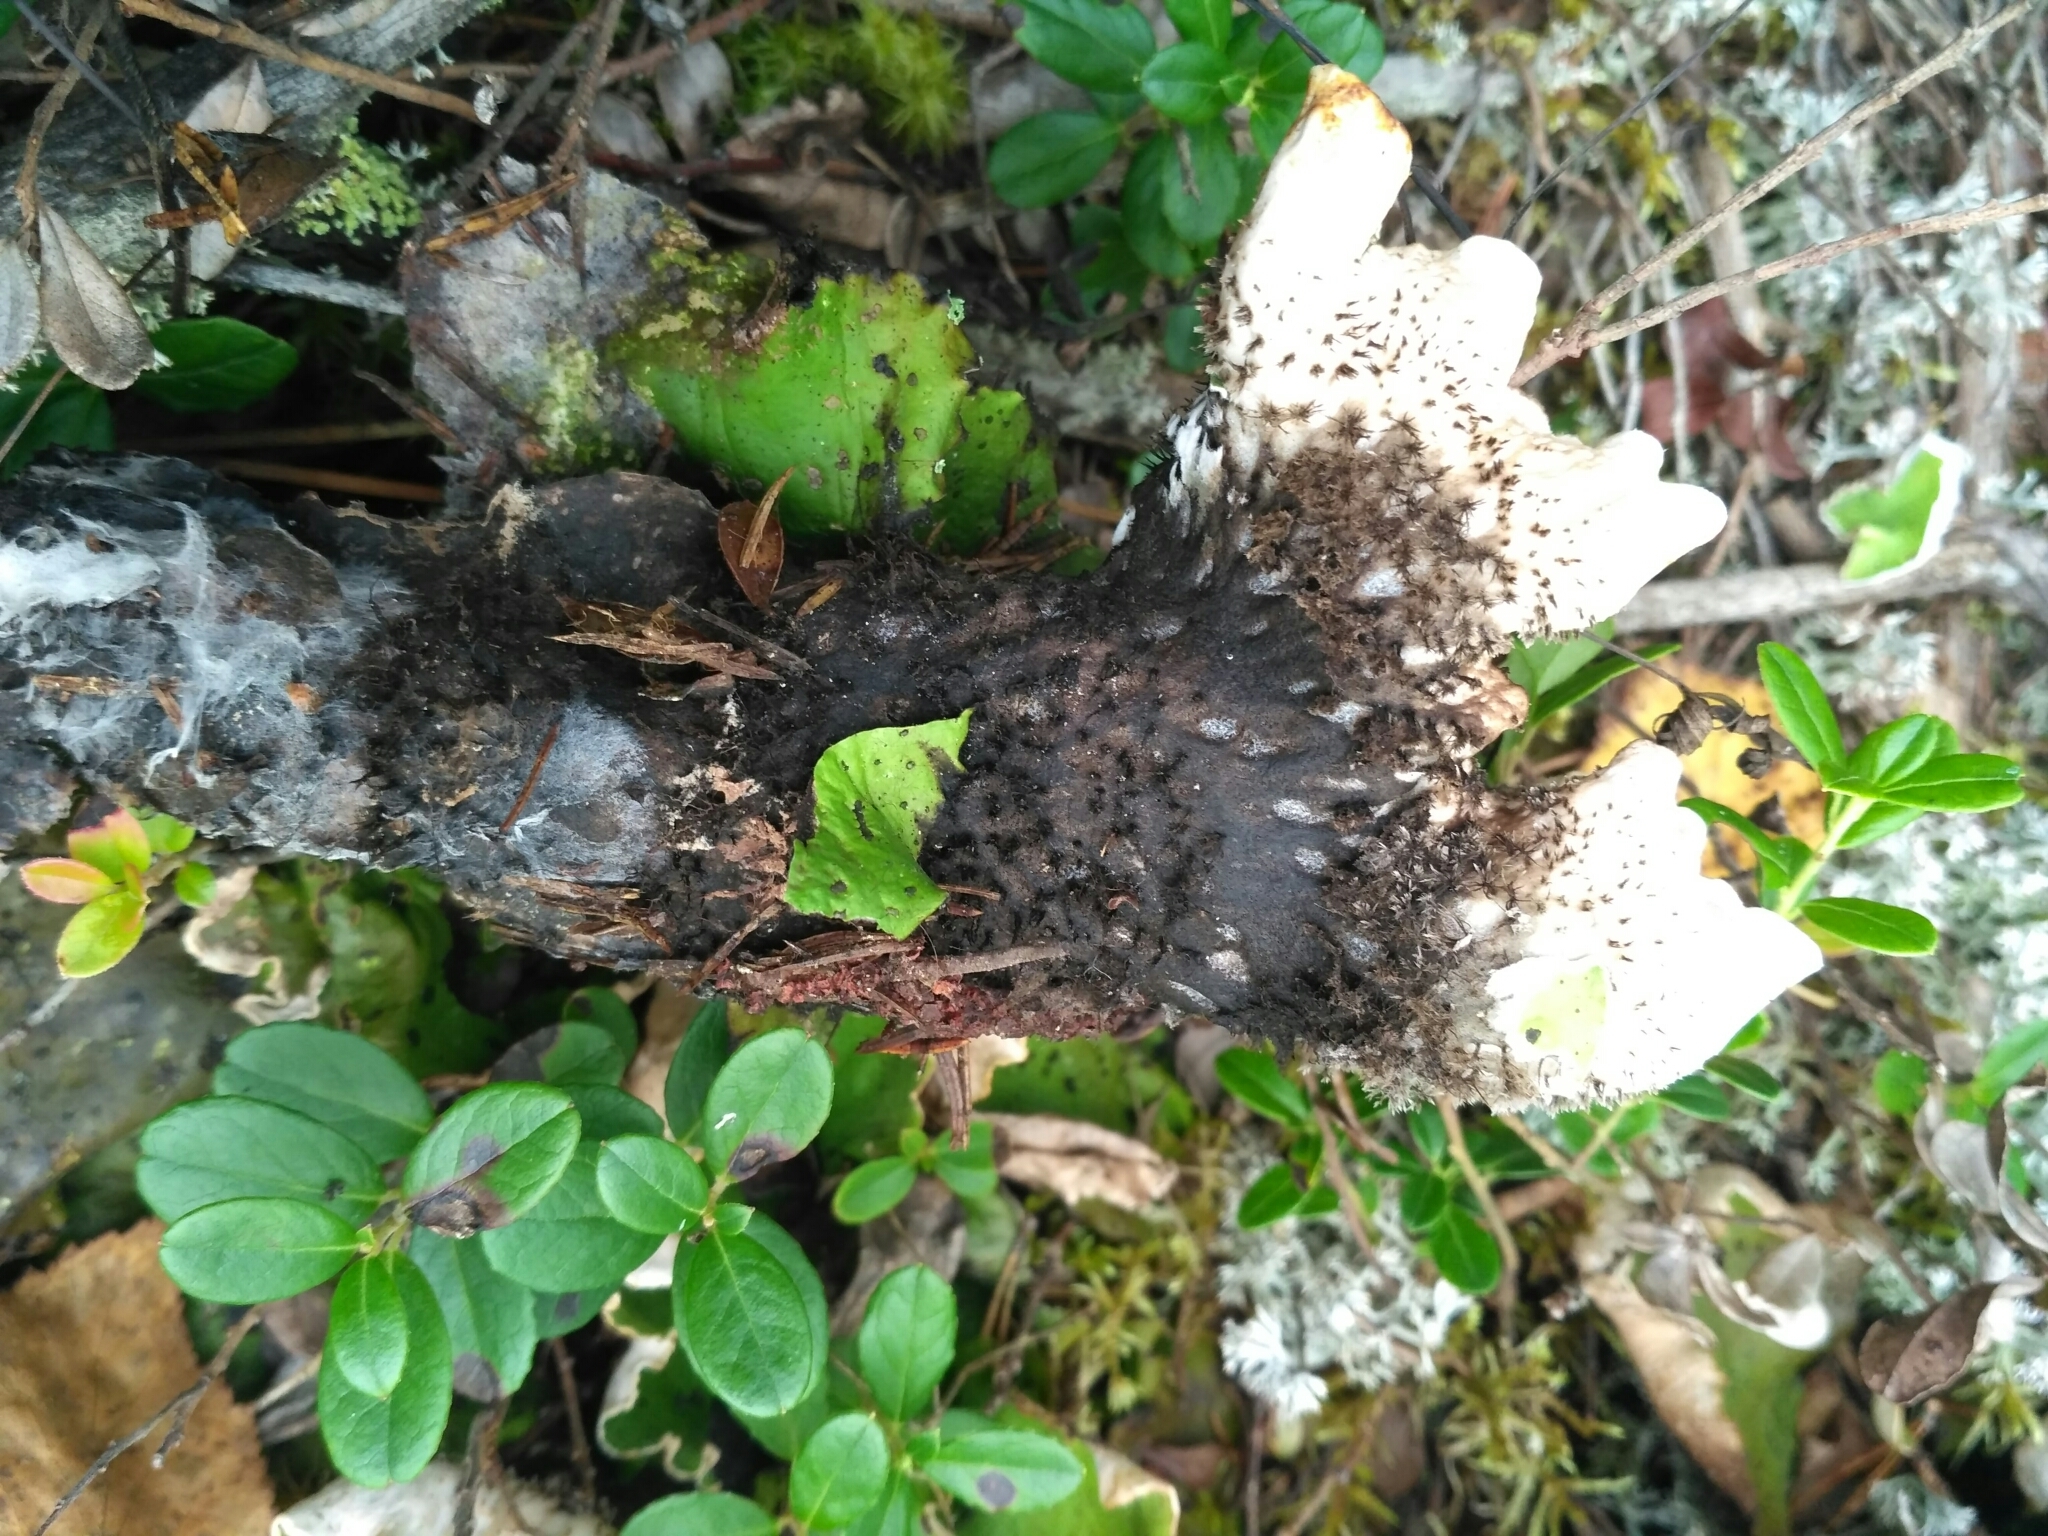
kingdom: Fungi
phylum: Ascomycota
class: Lecanoromycetes
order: Peltigerales
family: Peltigeraceae
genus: Peltigera
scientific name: Peltigera aphthosa
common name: Common freckle pelt lichen
